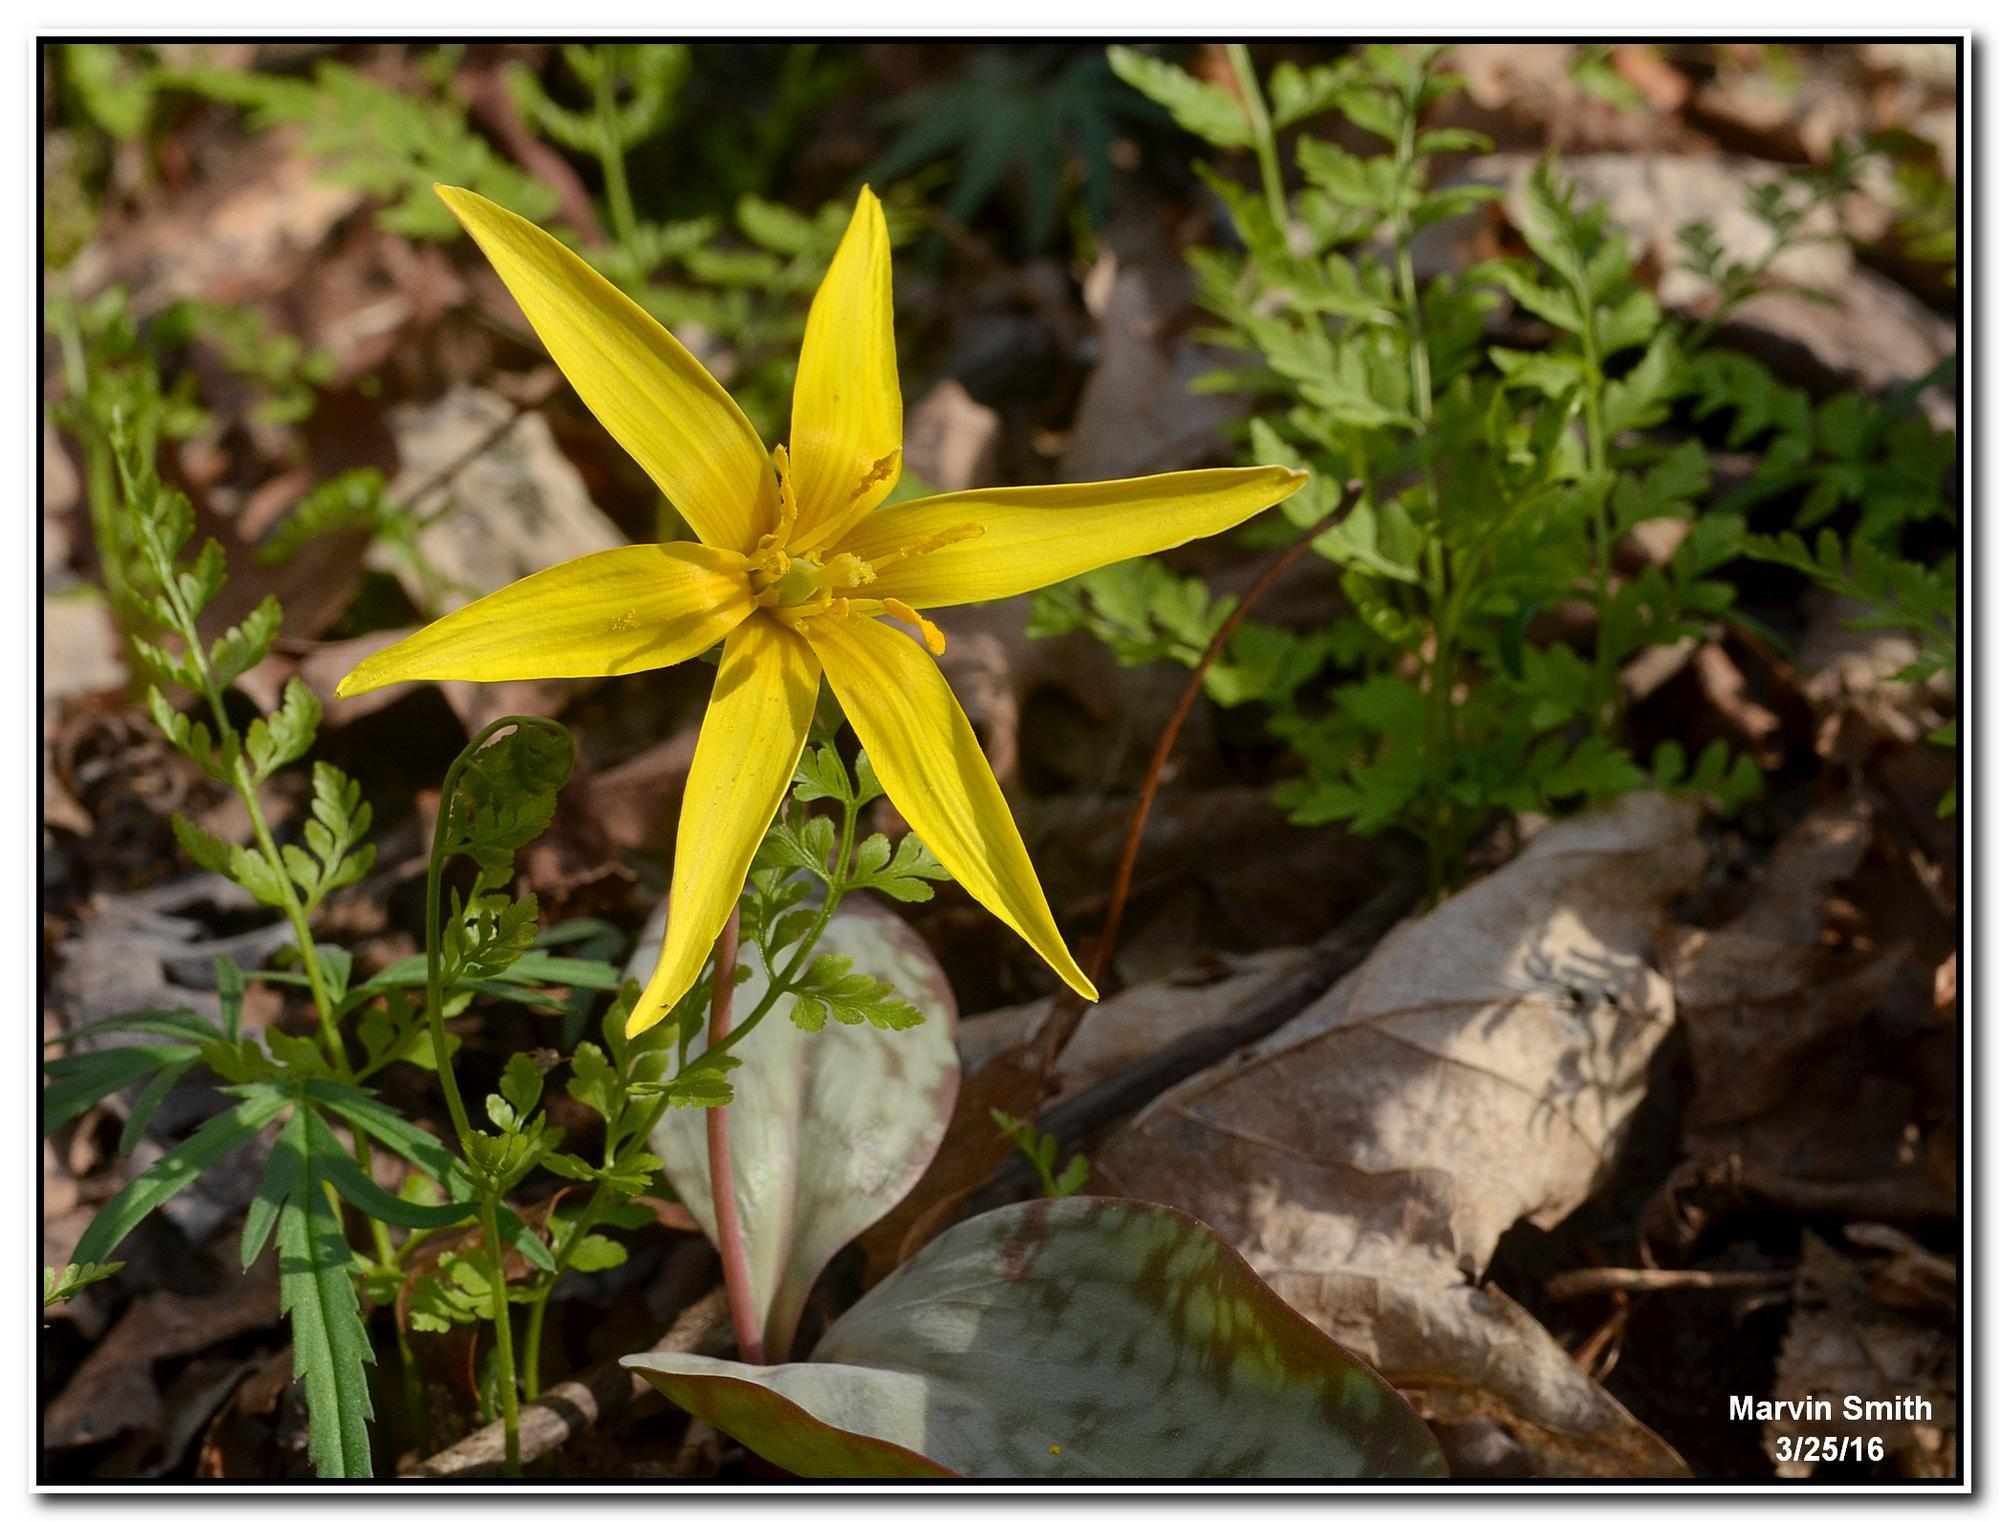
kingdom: Plantae
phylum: Tracheophyta
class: Liliopsida
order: Liliales
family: Liliaceae
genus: Erythronium
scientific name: Erythronium rostratum
